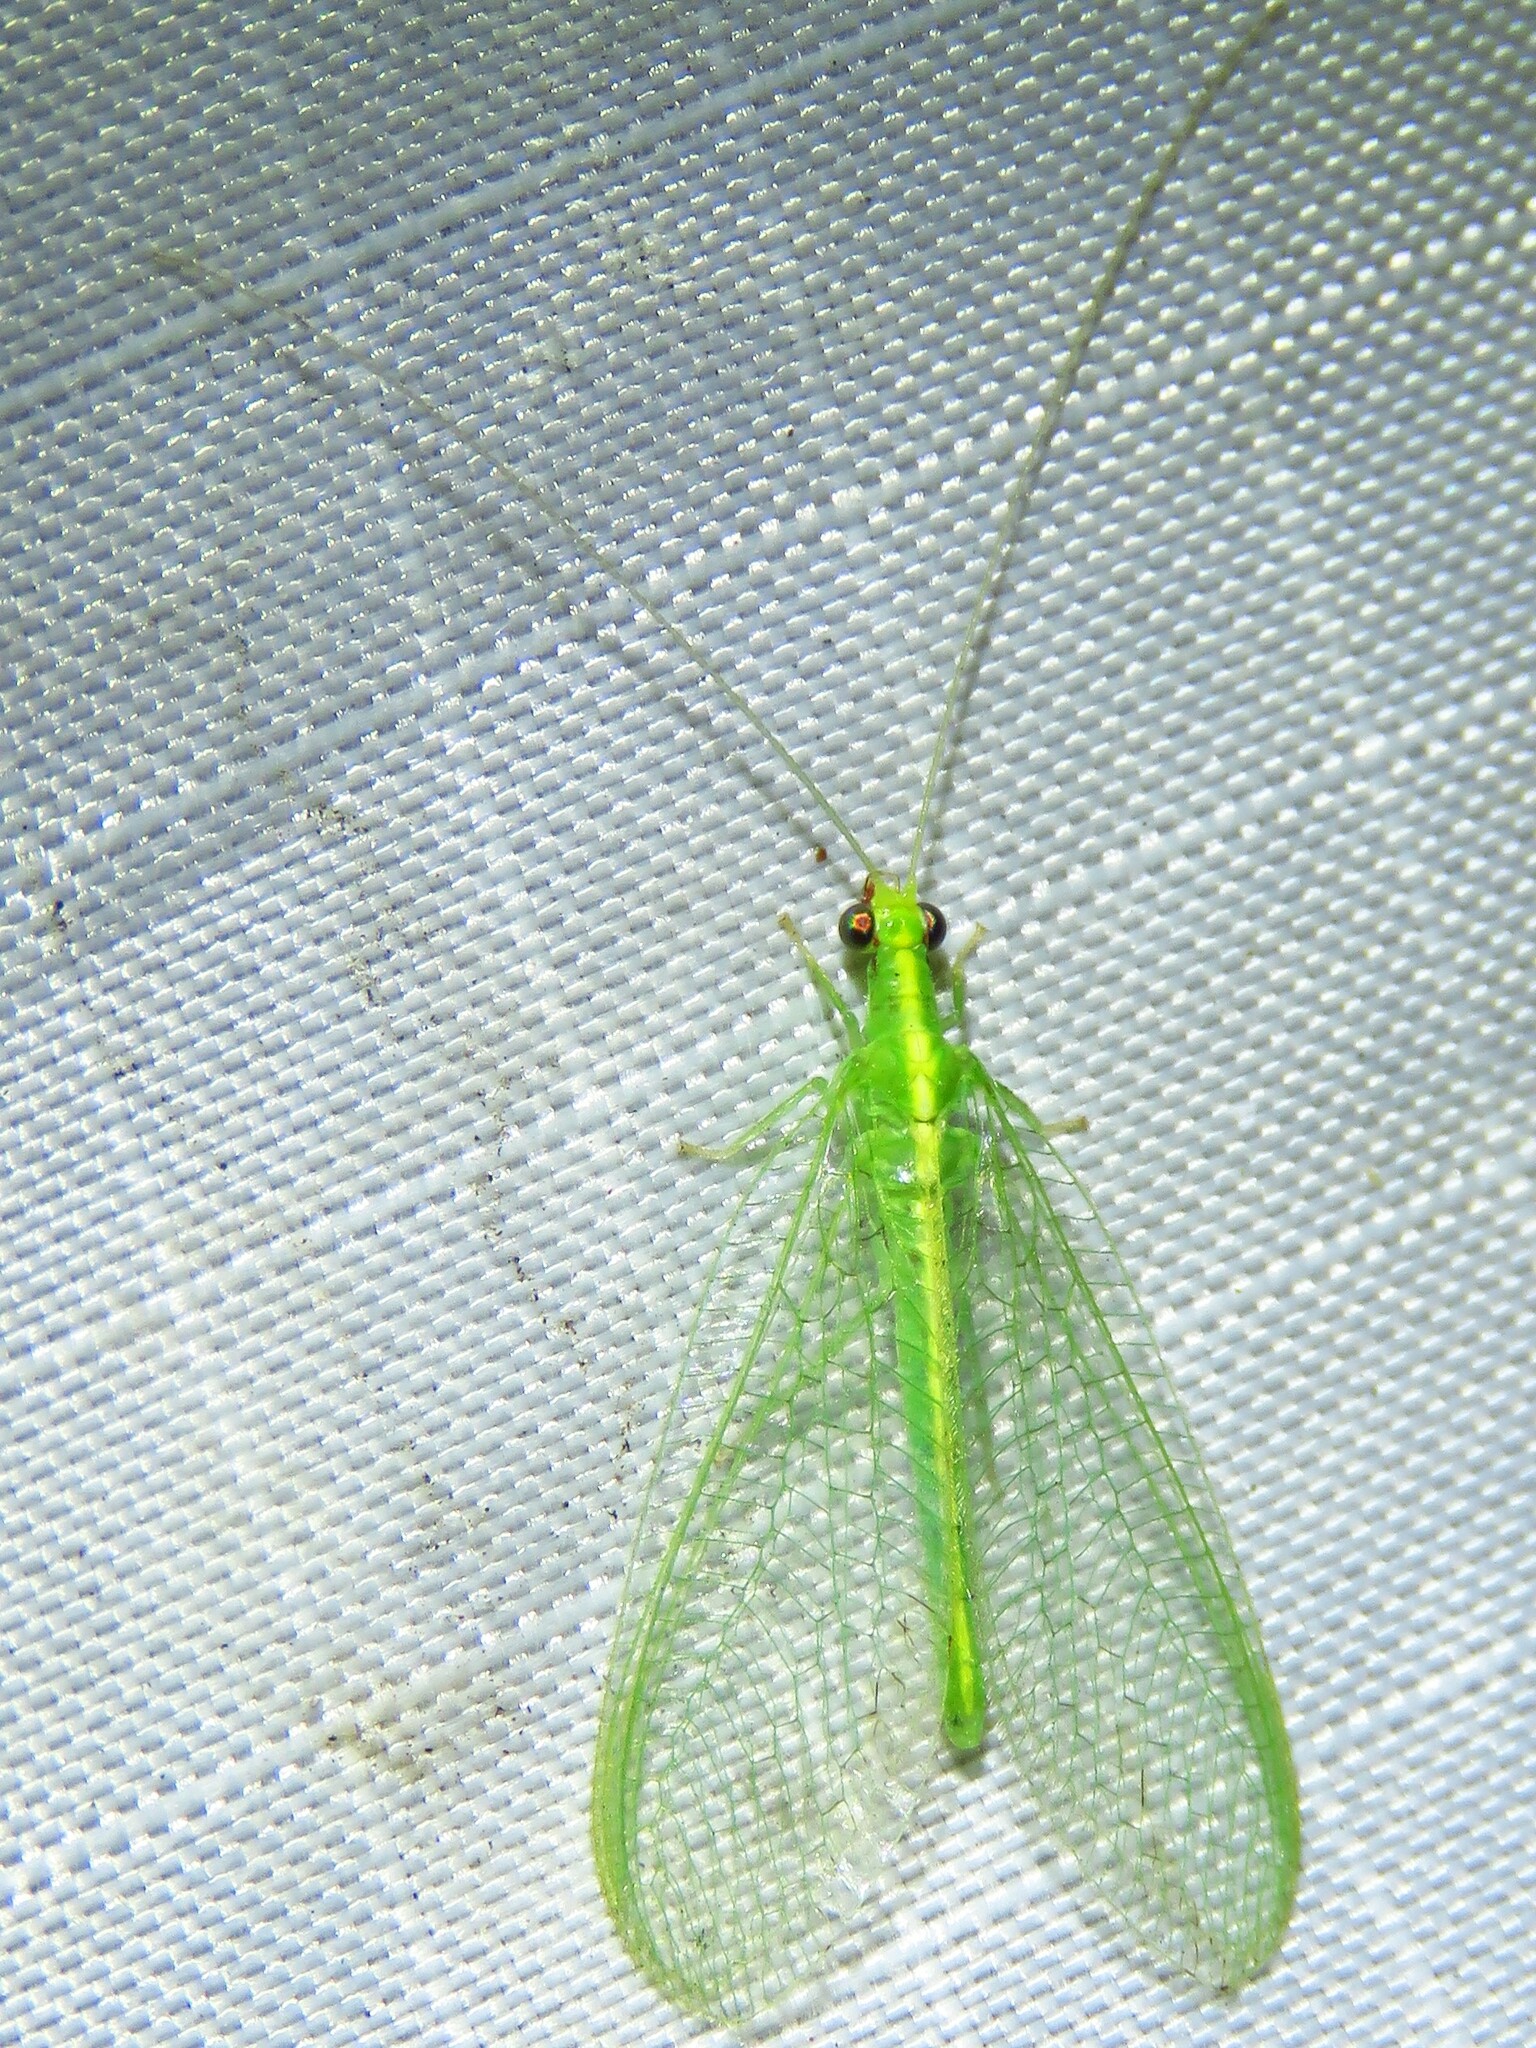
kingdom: Animalia
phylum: Arthropoda
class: Insecta
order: Neuroptera
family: Chrysopidae
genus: Chrysoperla
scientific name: Chrysoperla rufilabris
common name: Red-lipped green lacewing
